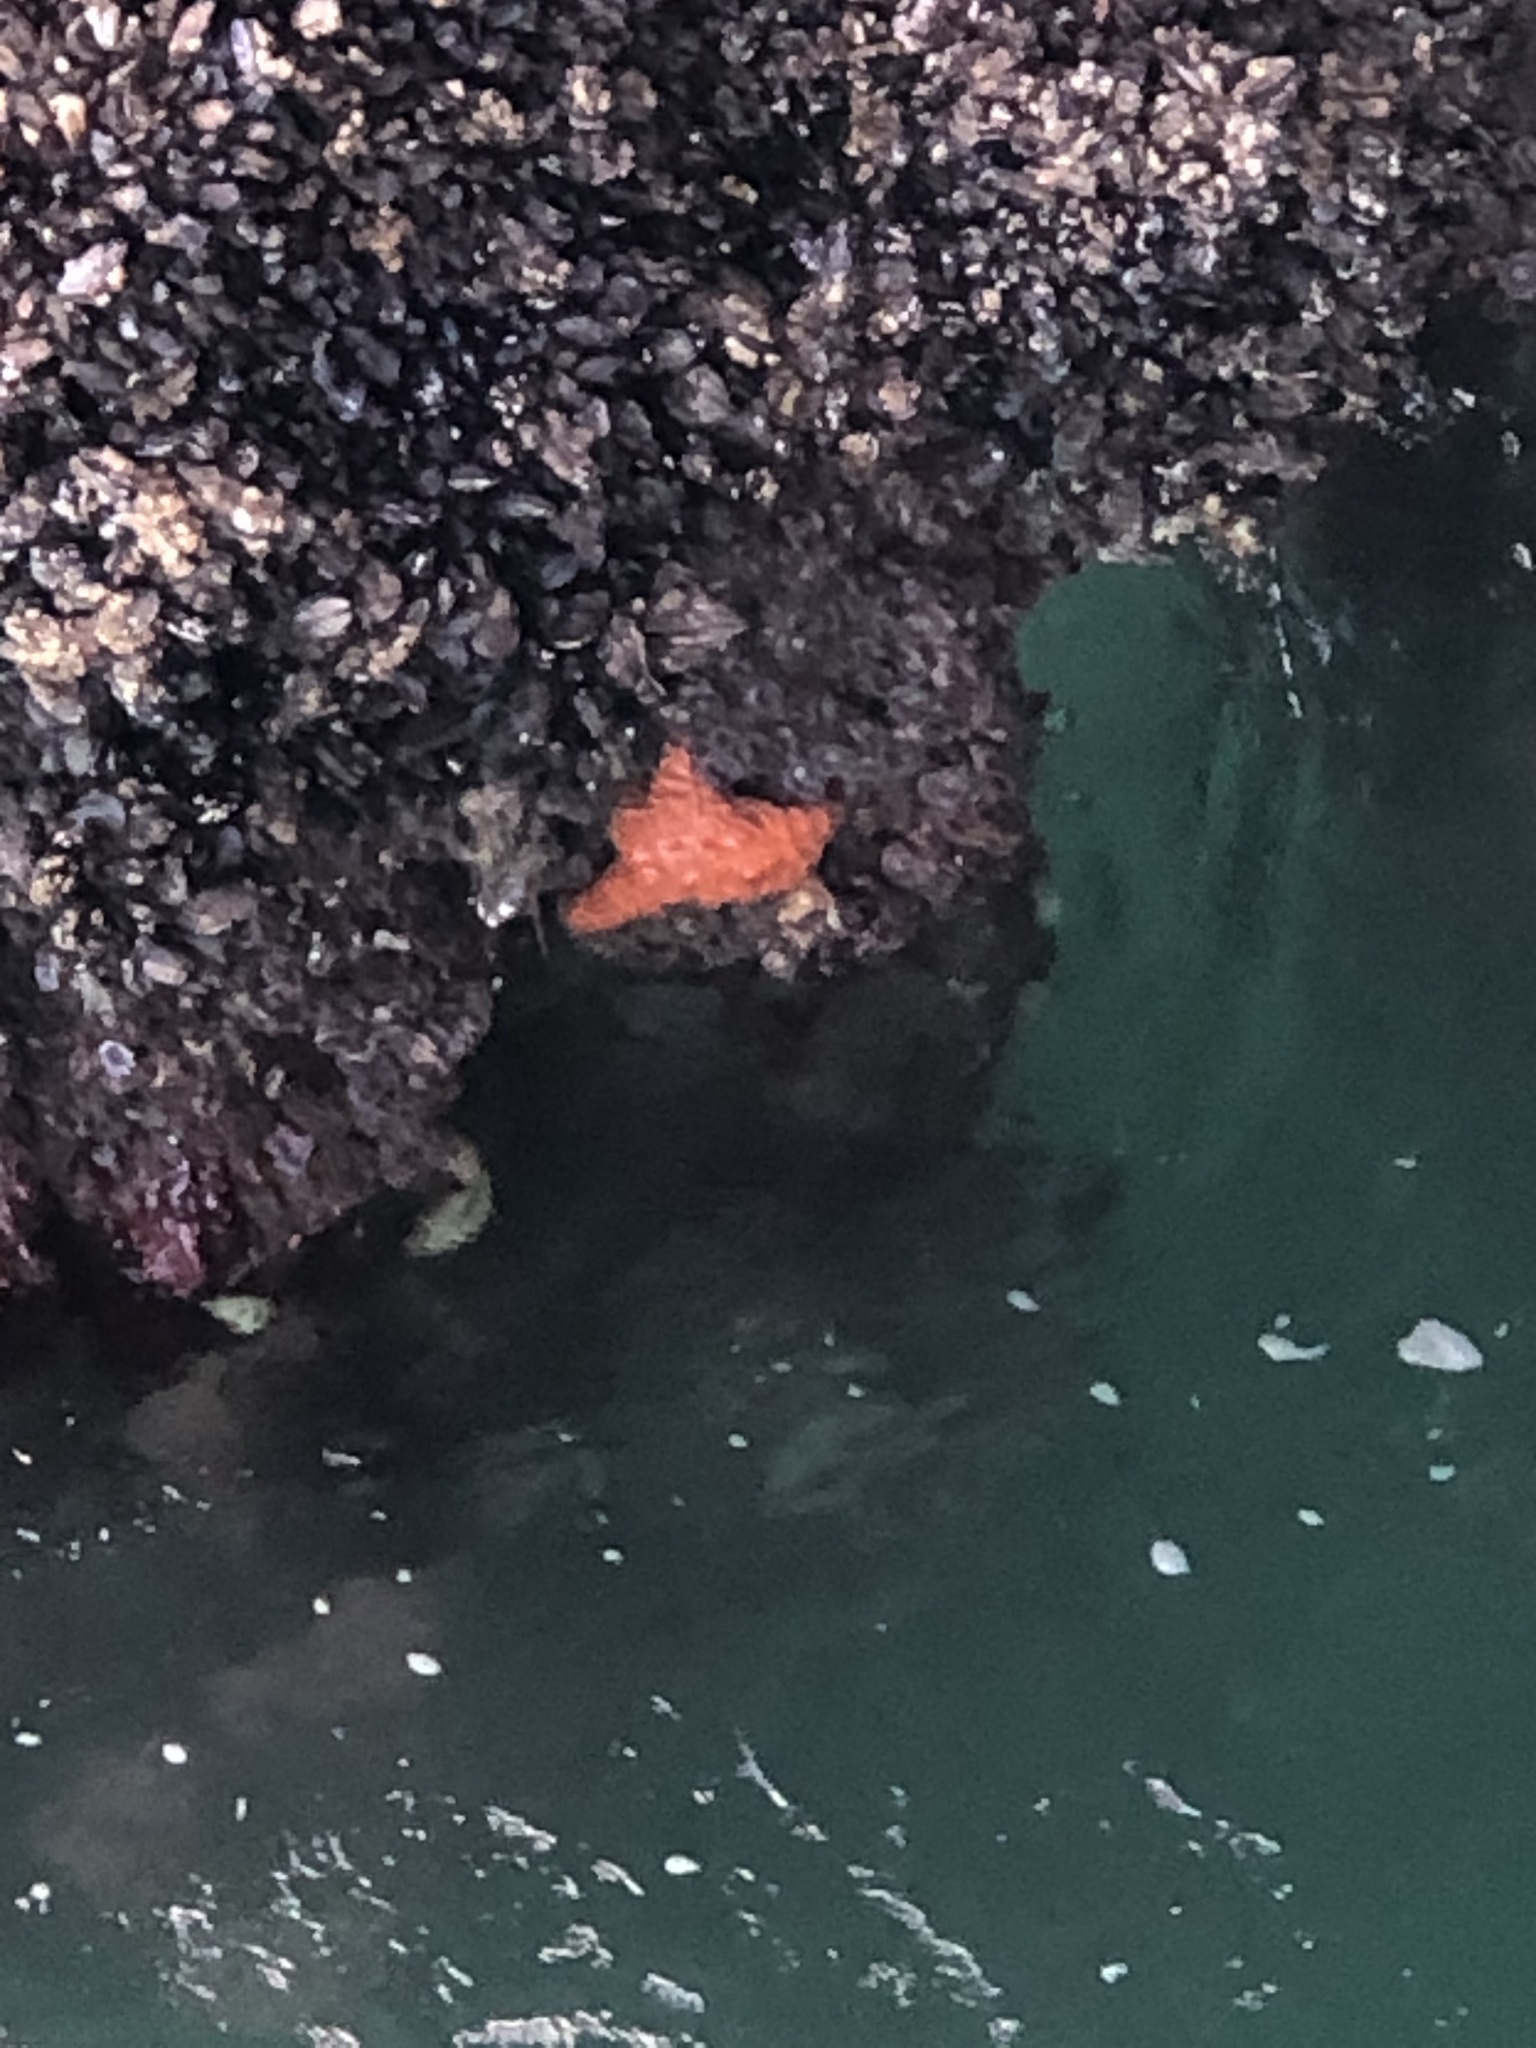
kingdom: Animalia
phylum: Echinodermata
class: Asteroidea
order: Forcipulatida
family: Asteriidae
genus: Pisaster
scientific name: Pisaster ochraceus
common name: Ochre stars
